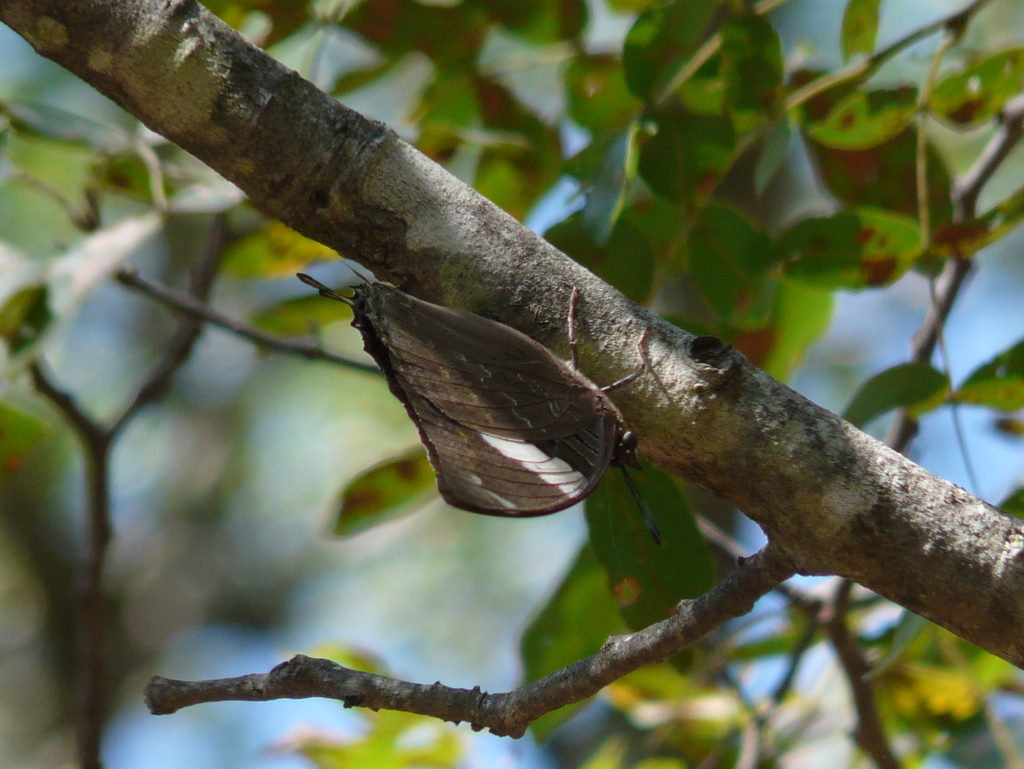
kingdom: Animalia
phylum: Arthropoda
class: Insecta
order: Lepidoptera
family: Nymphalidae
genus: Charaxes
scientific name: Charaxes bohemani
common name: Large blue charaxes
